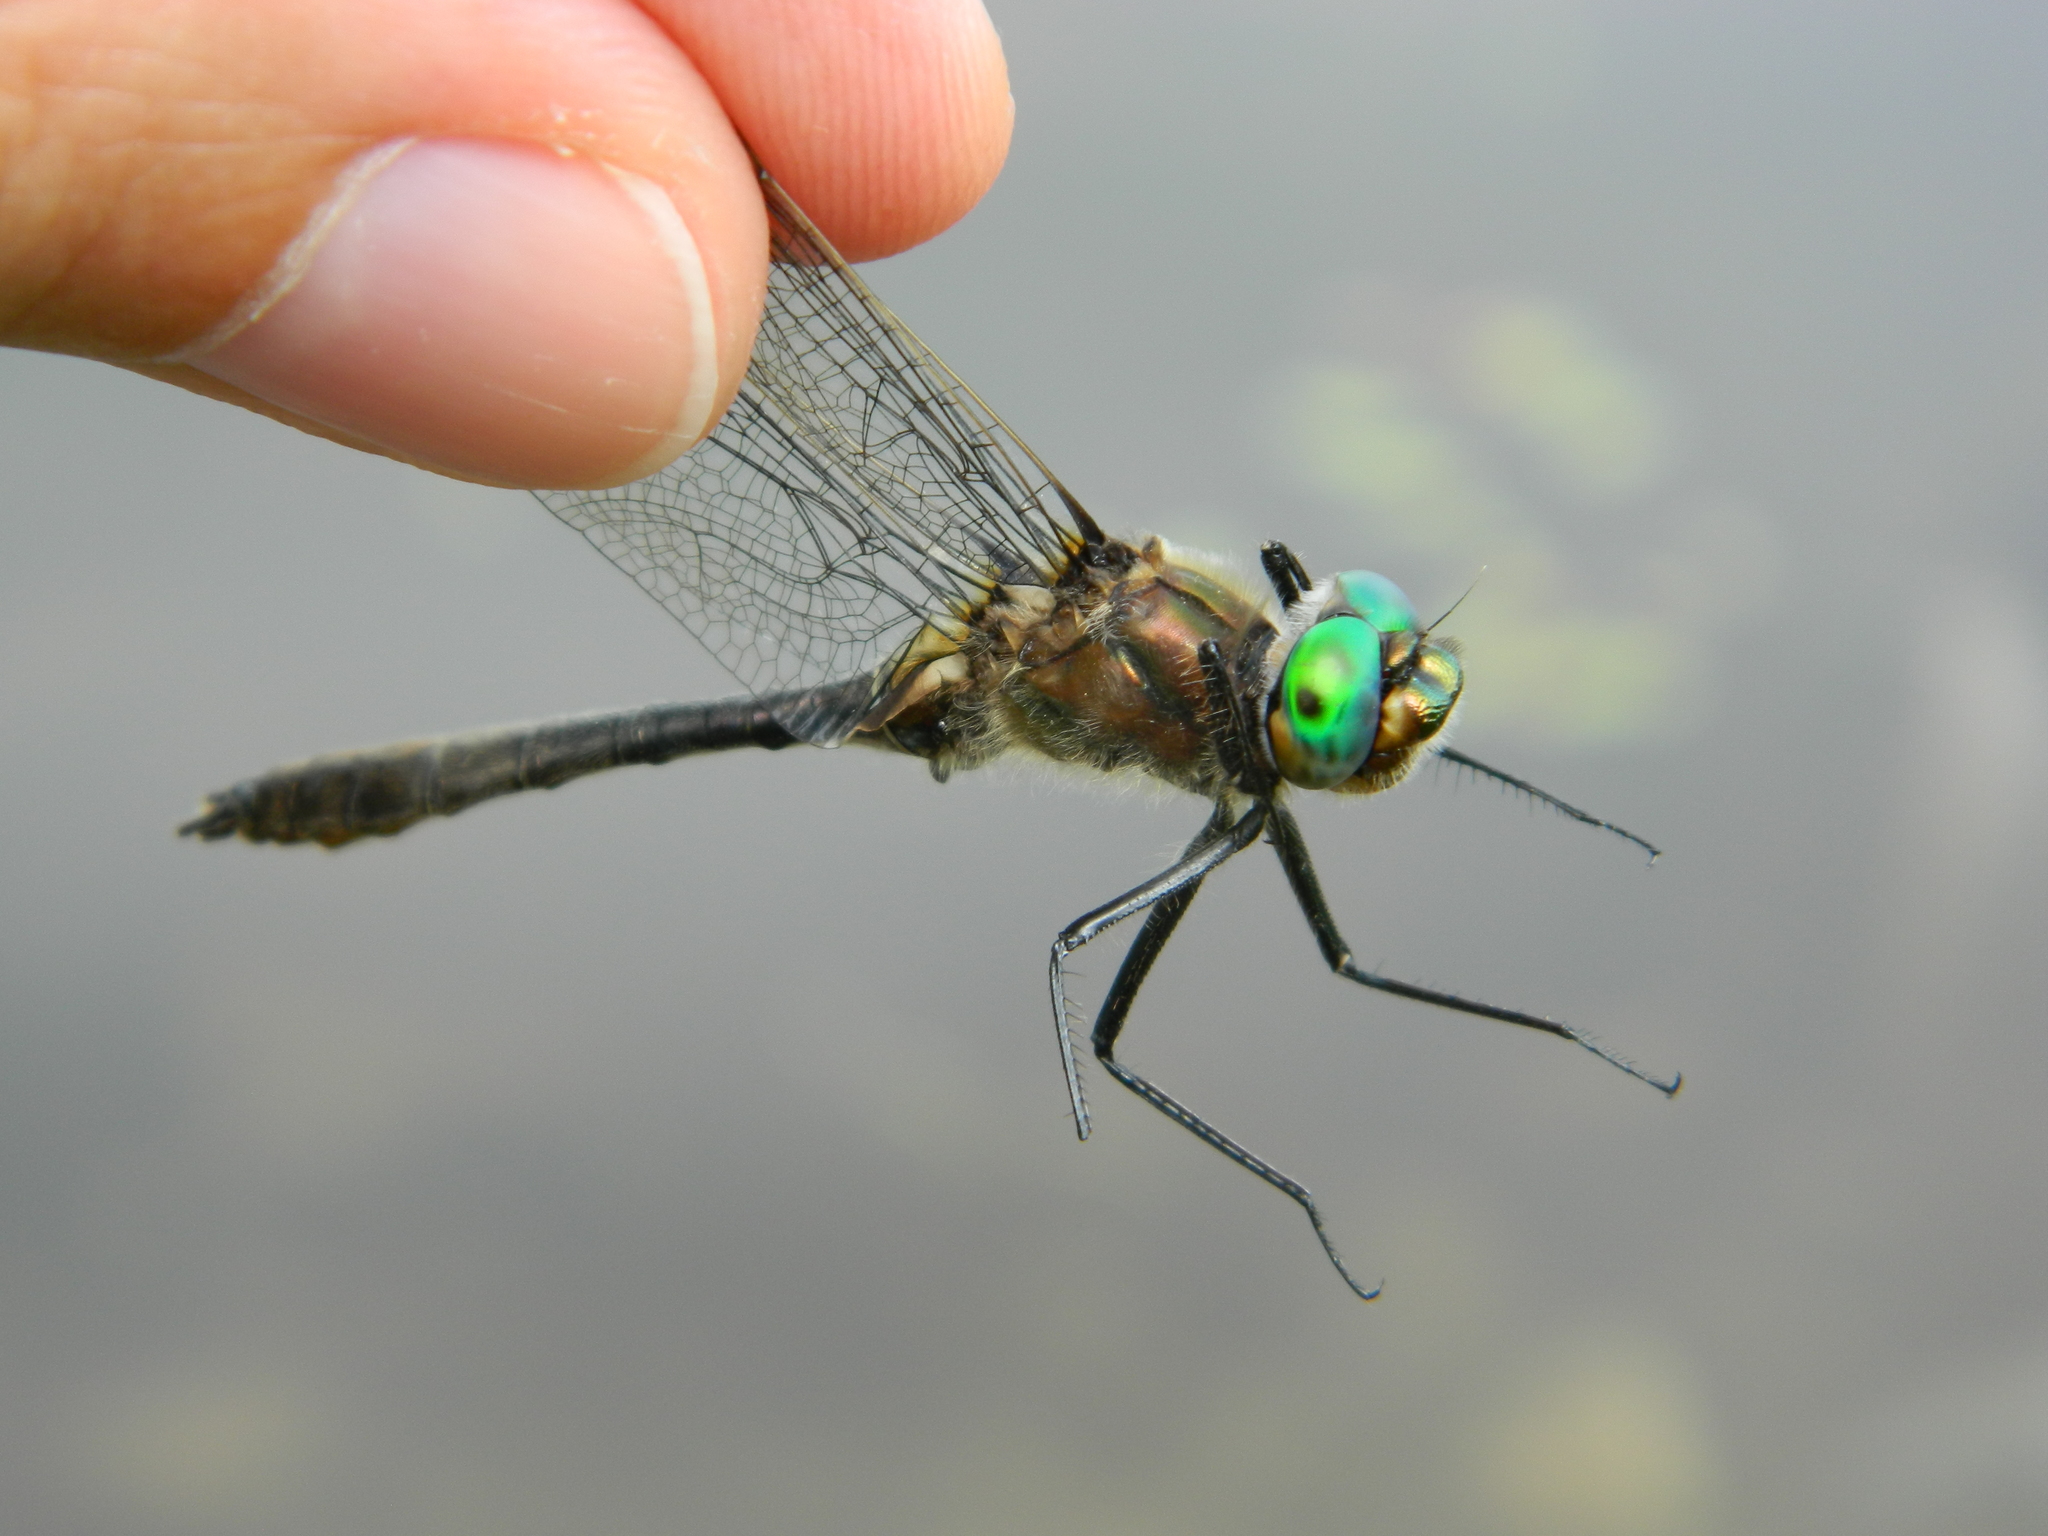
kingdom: Animalia
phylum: Arthropoda
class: Insecta
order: Odonata
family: Corduliidae
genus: Cordulia
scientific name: Cordulia shurtleffii
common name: American emerald
